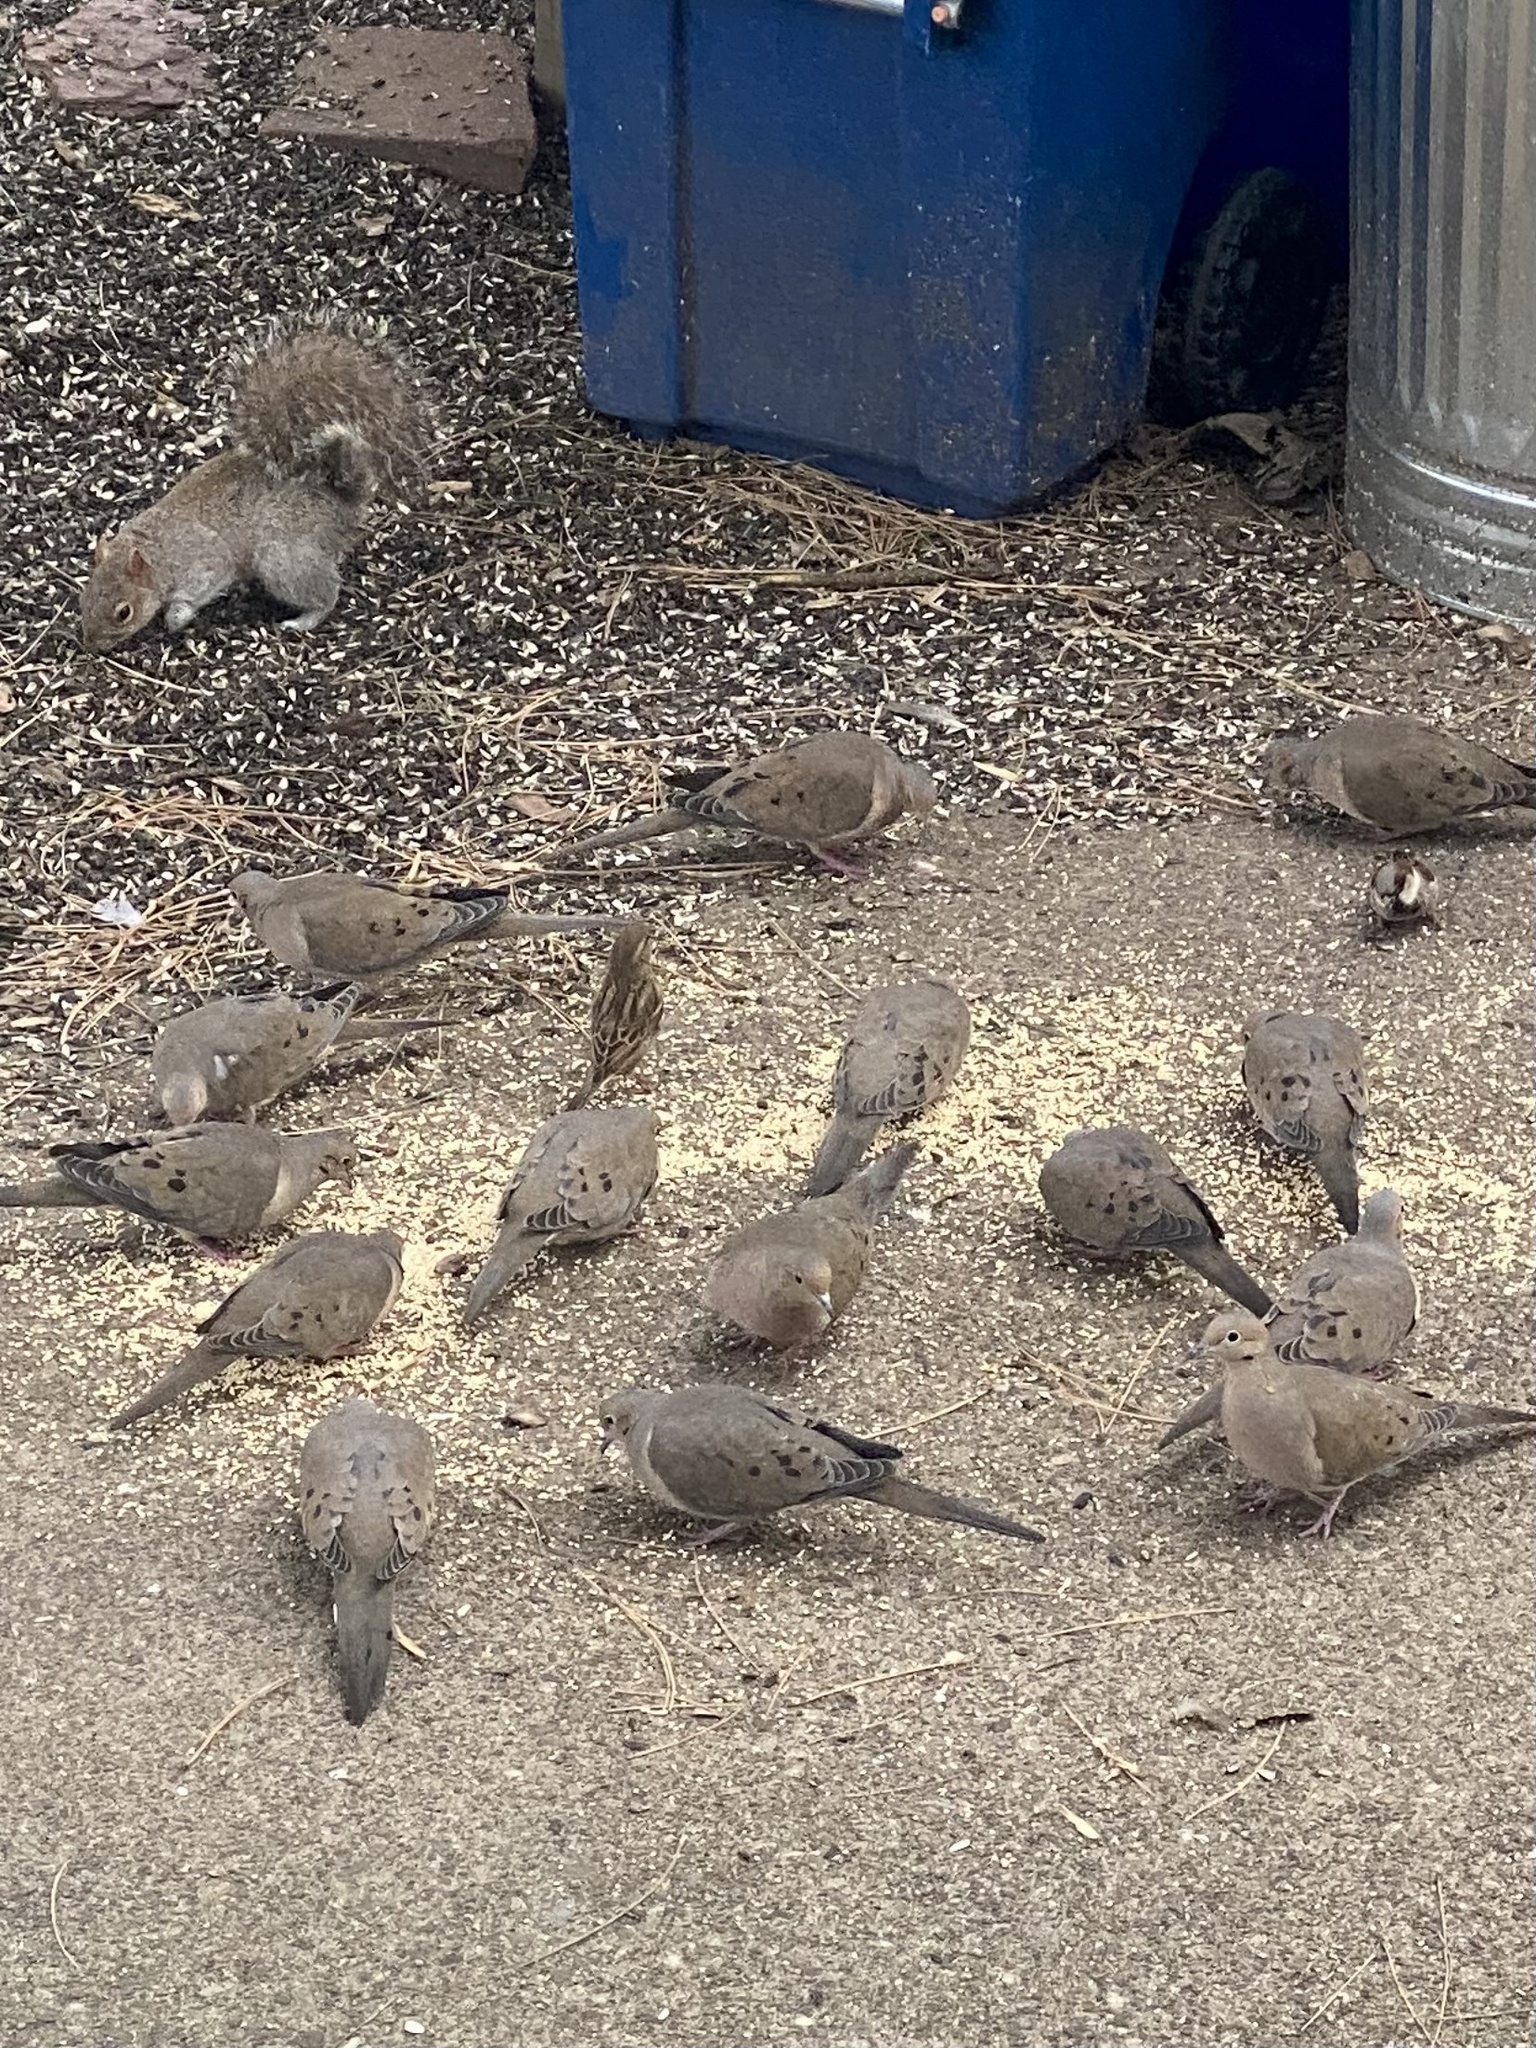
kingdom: Animalia
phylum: Chordata
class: Aves
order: Columbiformes
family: Columbidae
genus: Zenaida
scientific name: Zenaida macroura
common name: Mourning dove
